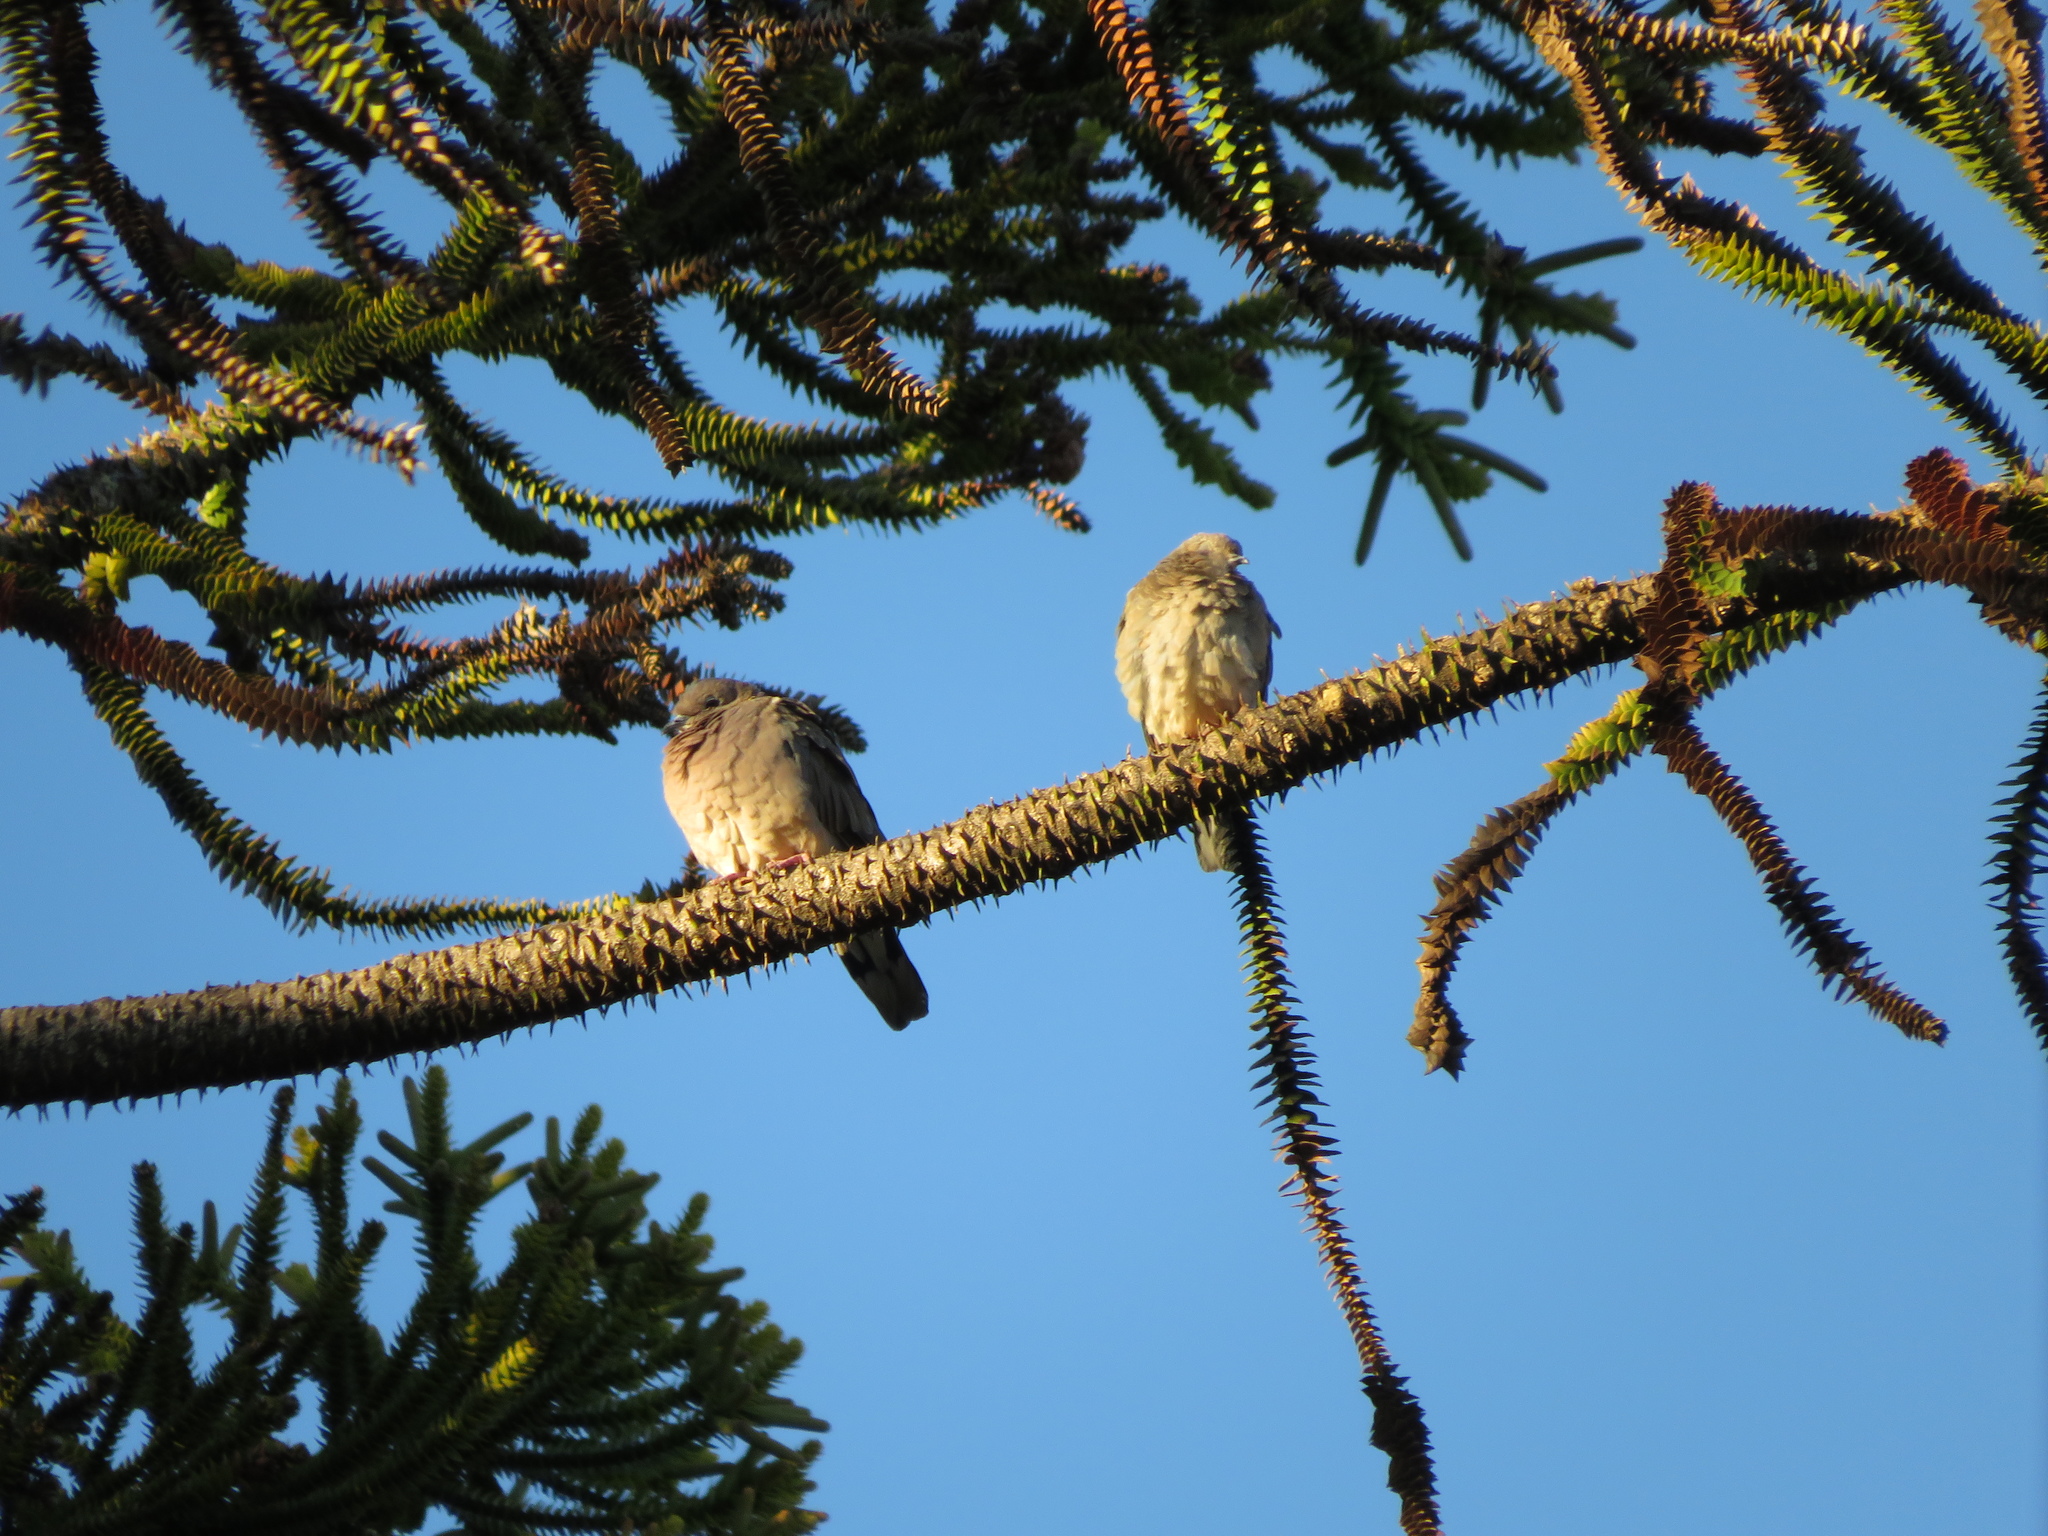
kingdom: Animalia
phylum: Chordata
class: Aves
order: Columbiformes
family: Columbidae
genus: Zenaida
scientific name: Zenaida auriculata
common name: Eared dove
